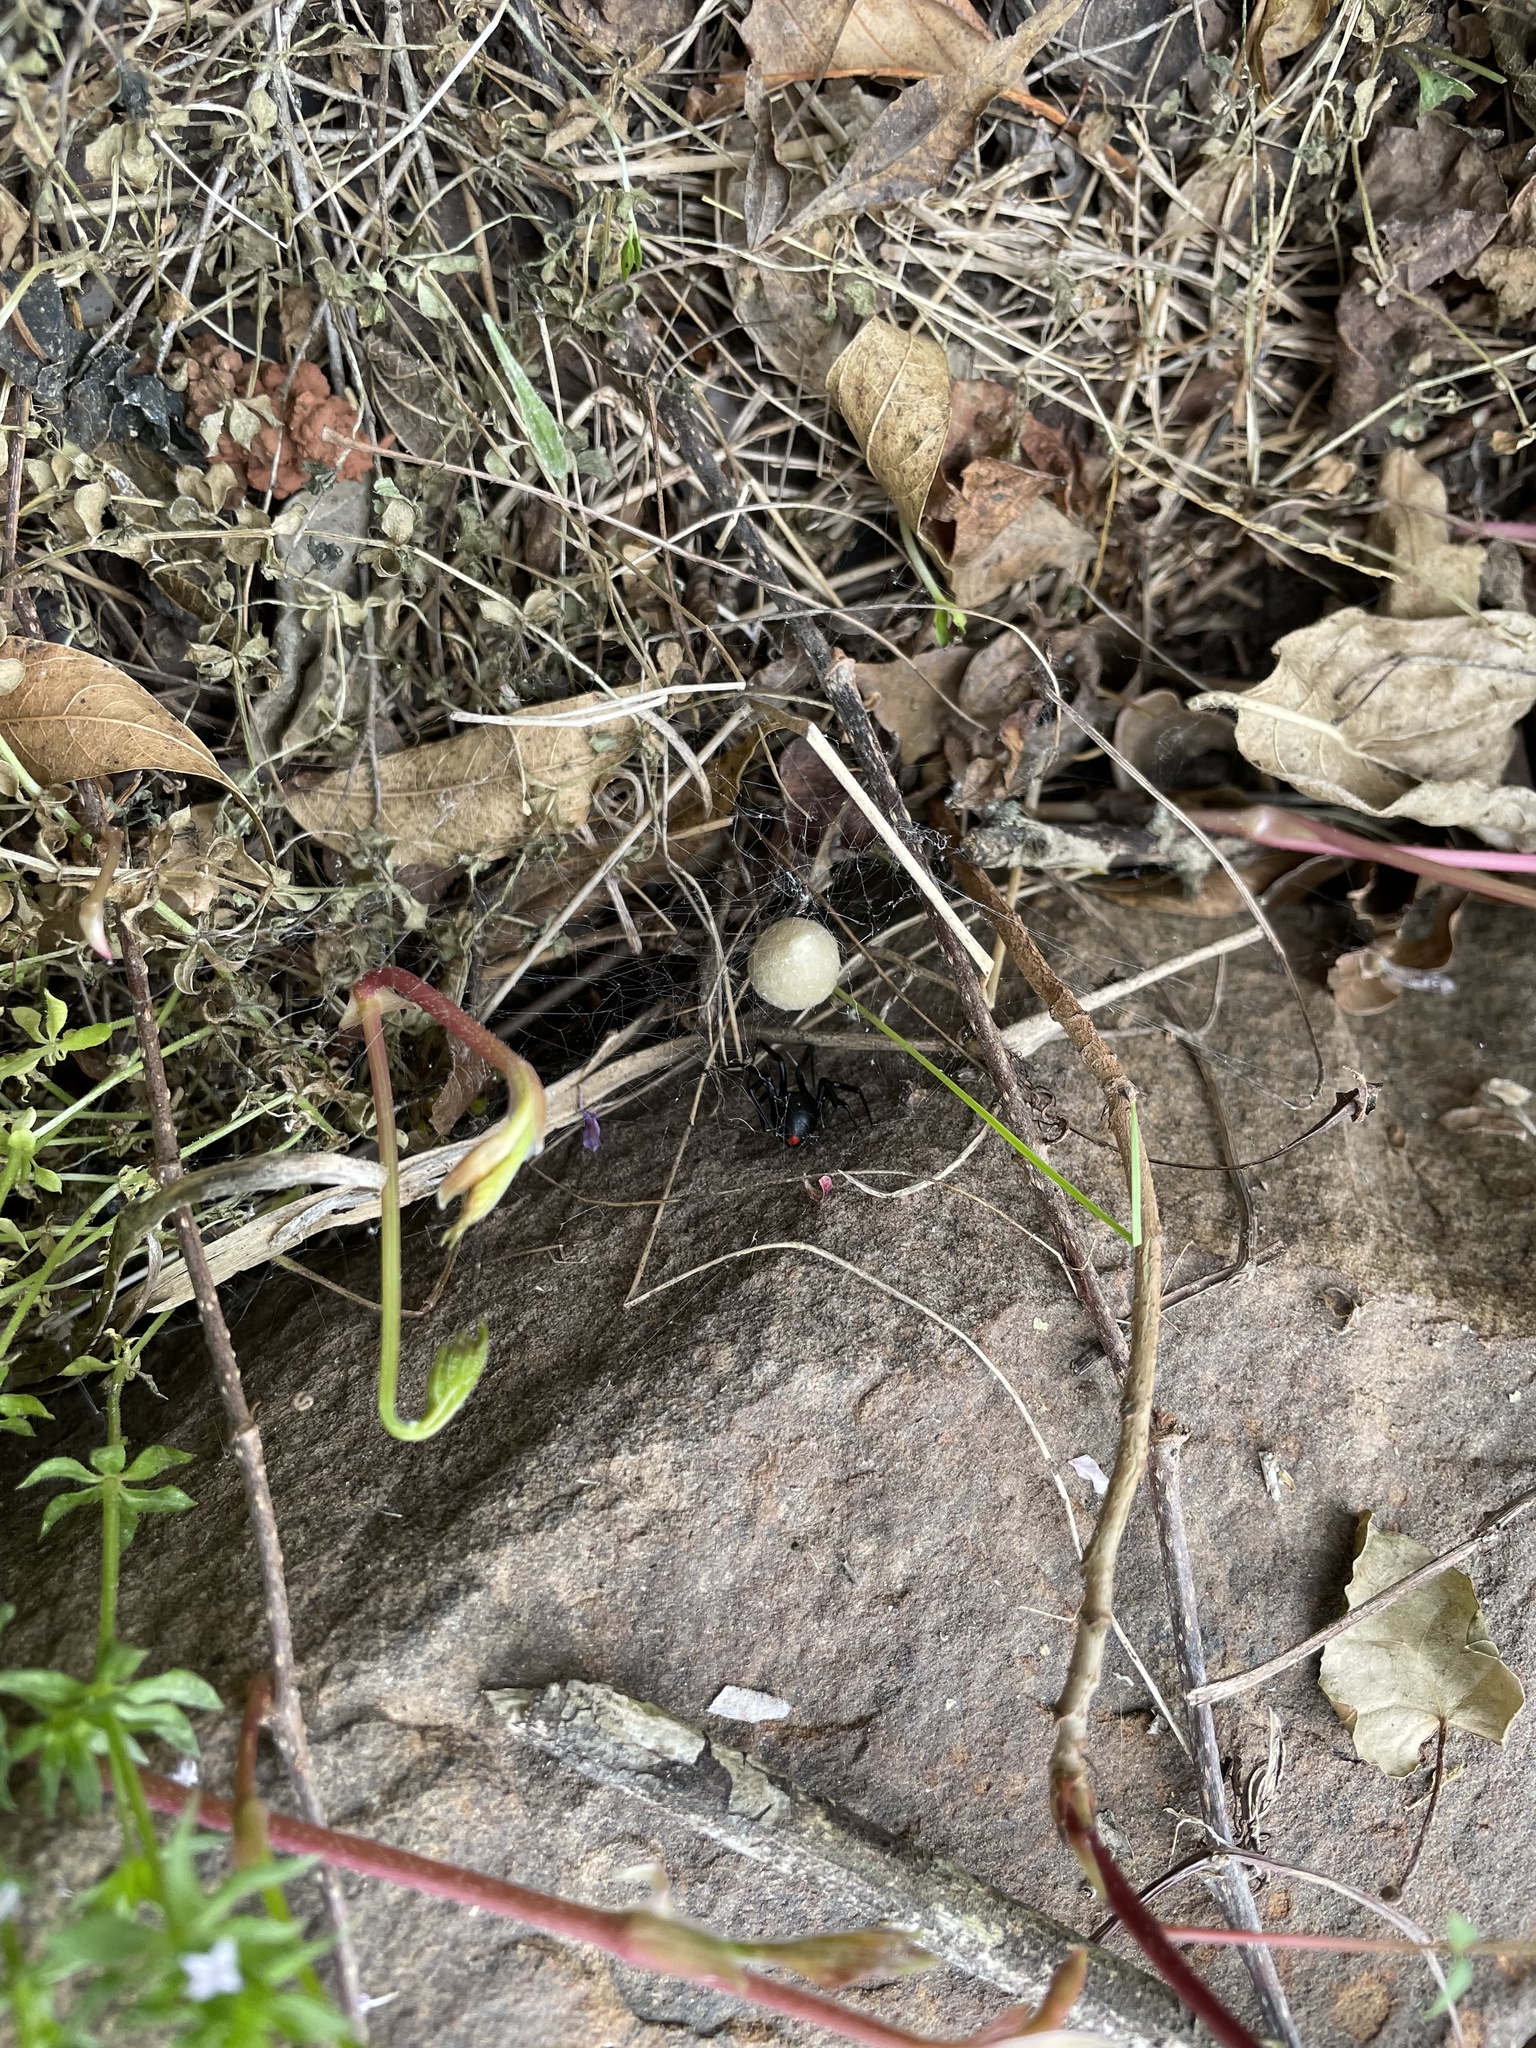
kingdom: Animalia
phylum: Arthropoda
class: Arachnida
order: Araneae
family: Theridiidae
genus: Latrodectus
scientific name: Latrodectus mactans
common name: Cobweb spiders
